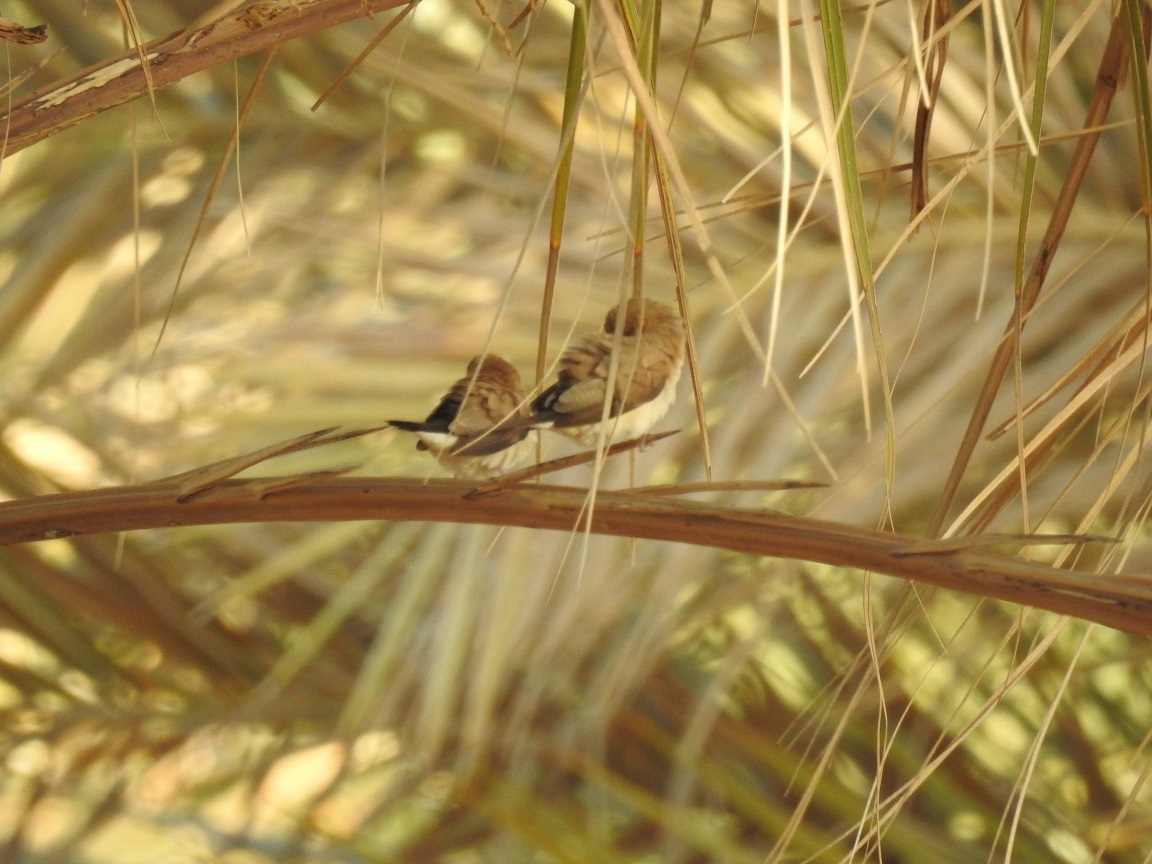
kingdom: Animalia
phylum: Chordata
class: Aves
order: Passeriformes
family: Estrildidae
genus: Euodice
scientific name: Euodice cantans
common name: African silverbill
